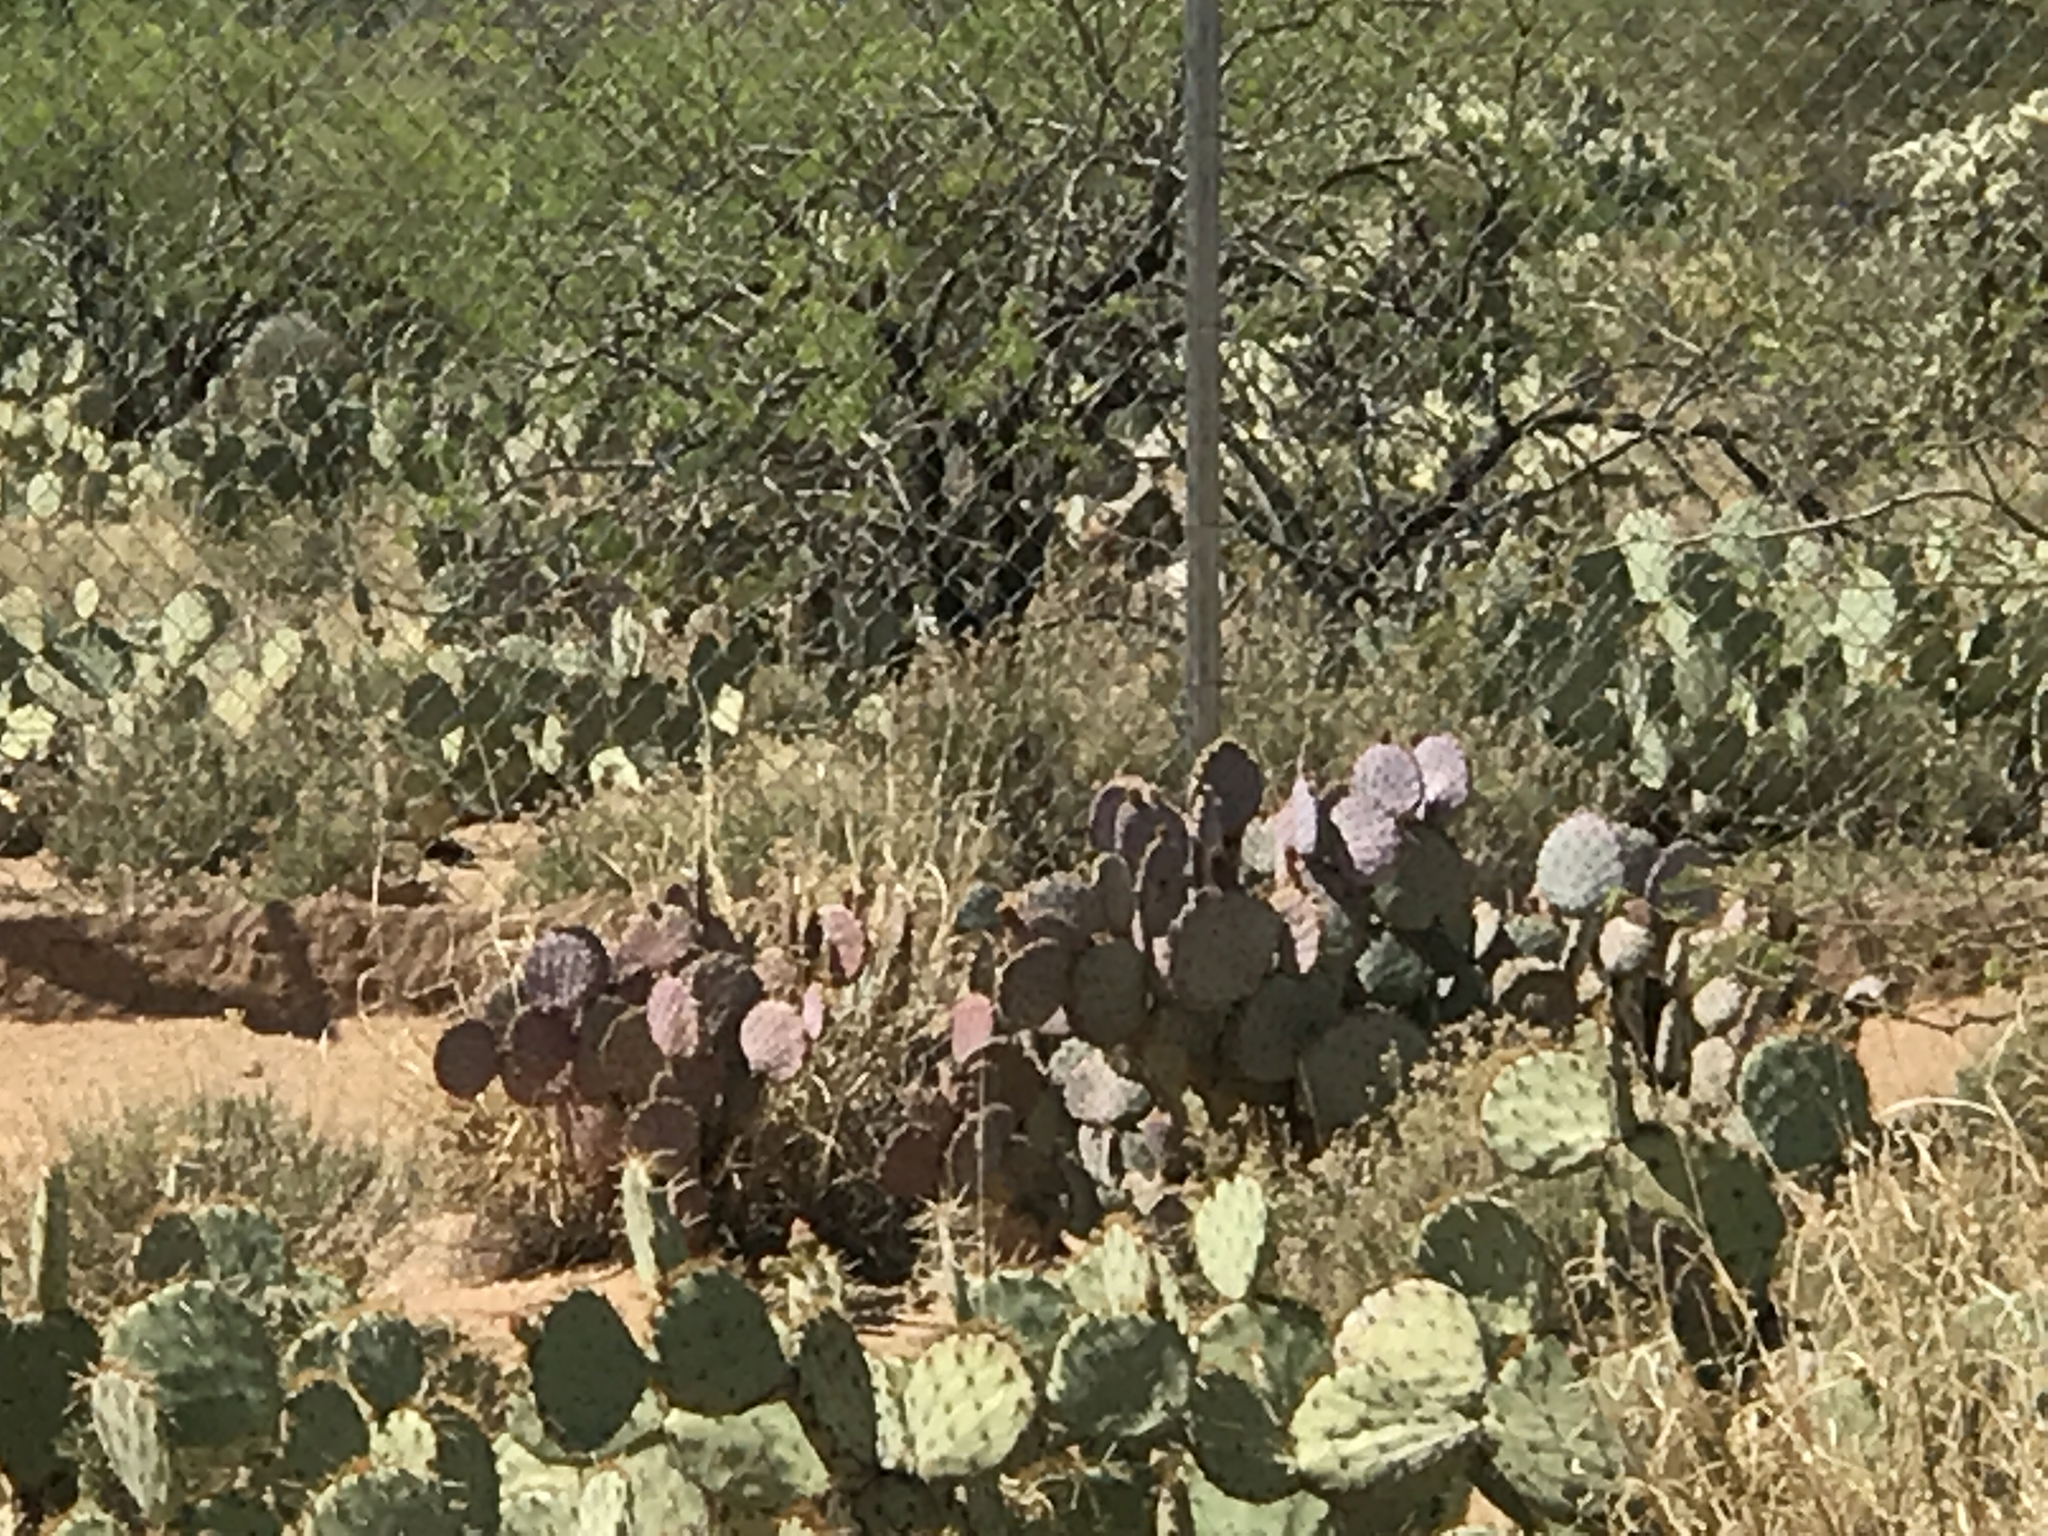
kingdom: Plantae
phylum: Tracheophyta
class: Magnoliopsida
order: Caryophyllales
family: Cactaceae
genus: Opuntia
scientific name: Opuntia gosseliniana
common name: Violet prickly-pear
